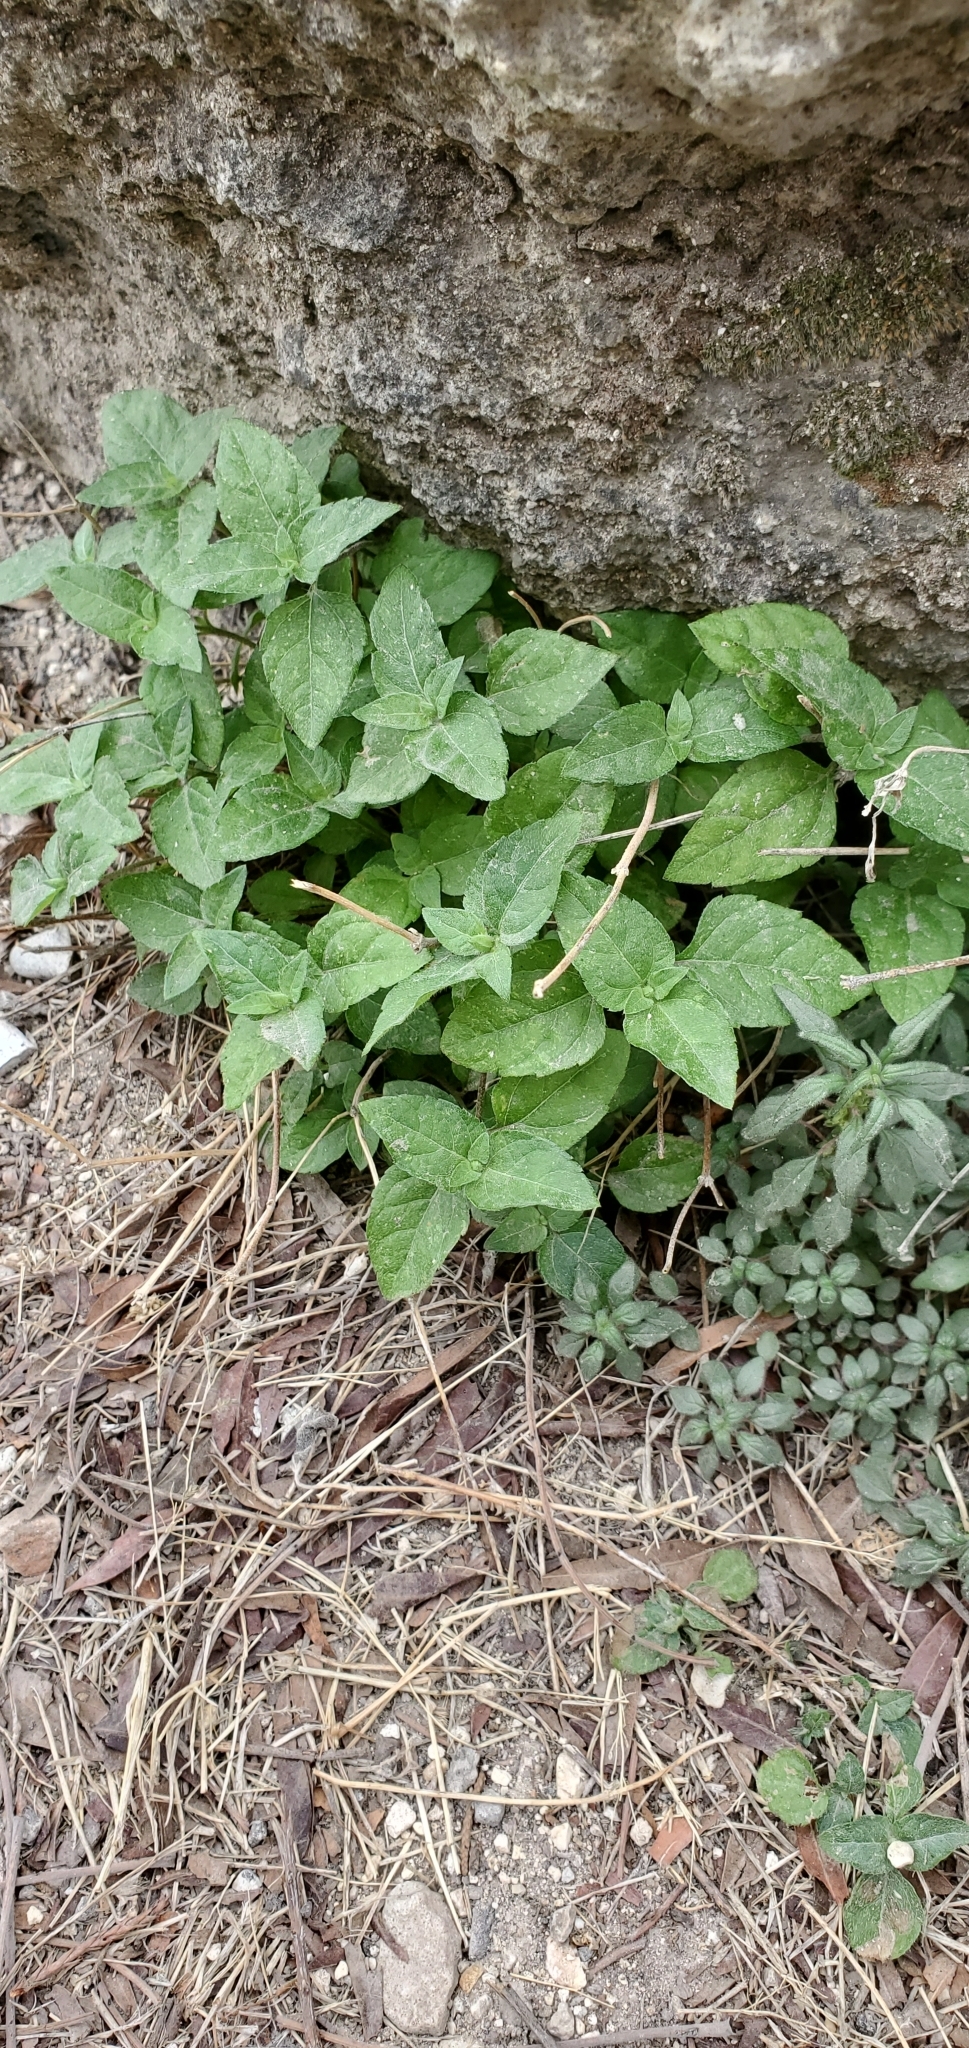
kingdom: Plantae
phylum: Tracheophyta
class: Magnoliopsida
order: Asterales
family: Asteraceae
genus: Calyptocarpus
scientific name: Calyptocarpus vialis
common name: Straggler daisy
